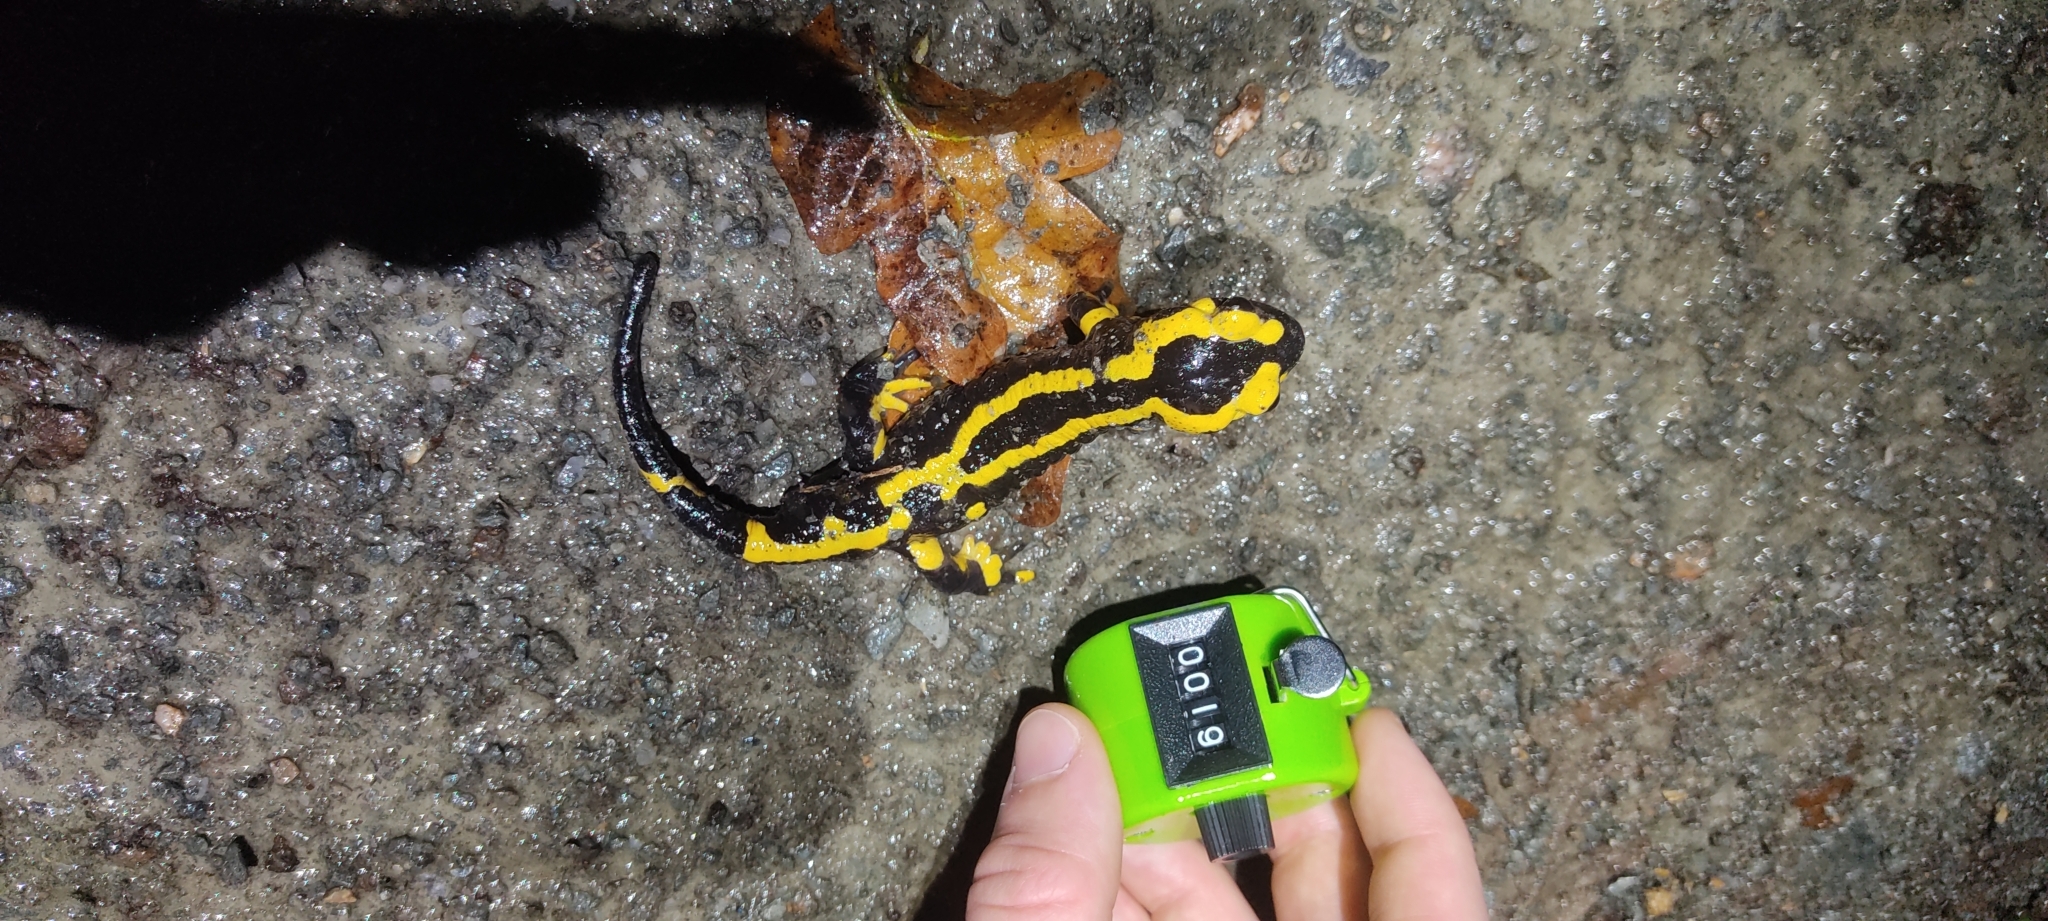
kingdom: Animalia
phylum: Chordata
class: Amphibia
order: Caudata
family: Salamandridae
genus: Salamandra
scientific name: Salamandra salamandra
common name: Fire salamander
